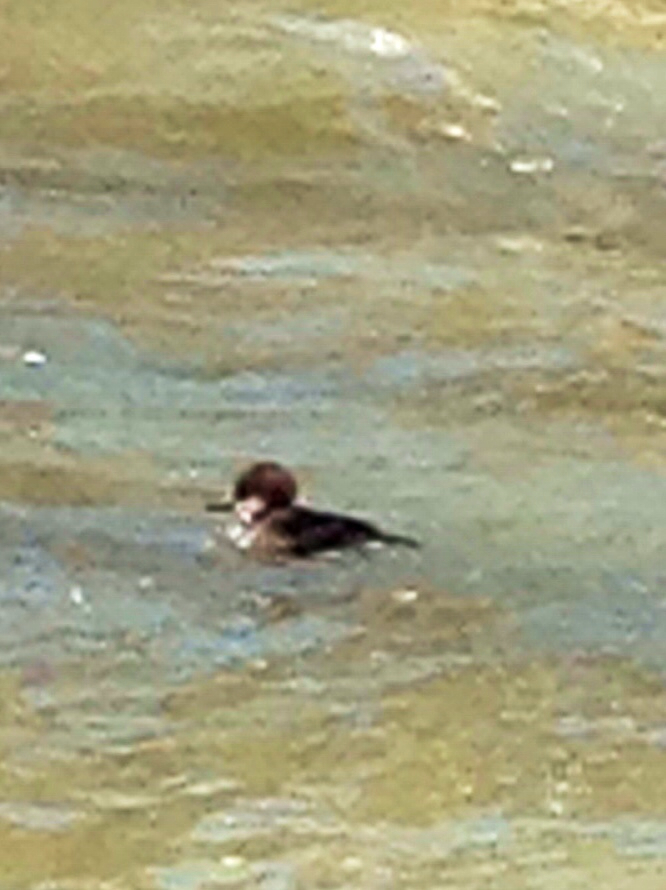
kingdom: Animalia
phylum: Chordata
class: Aves
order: Anseriformes
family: Anatidae
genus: Lophodytes
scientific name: Lophodytes cucullatus
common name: Hooded merganser
